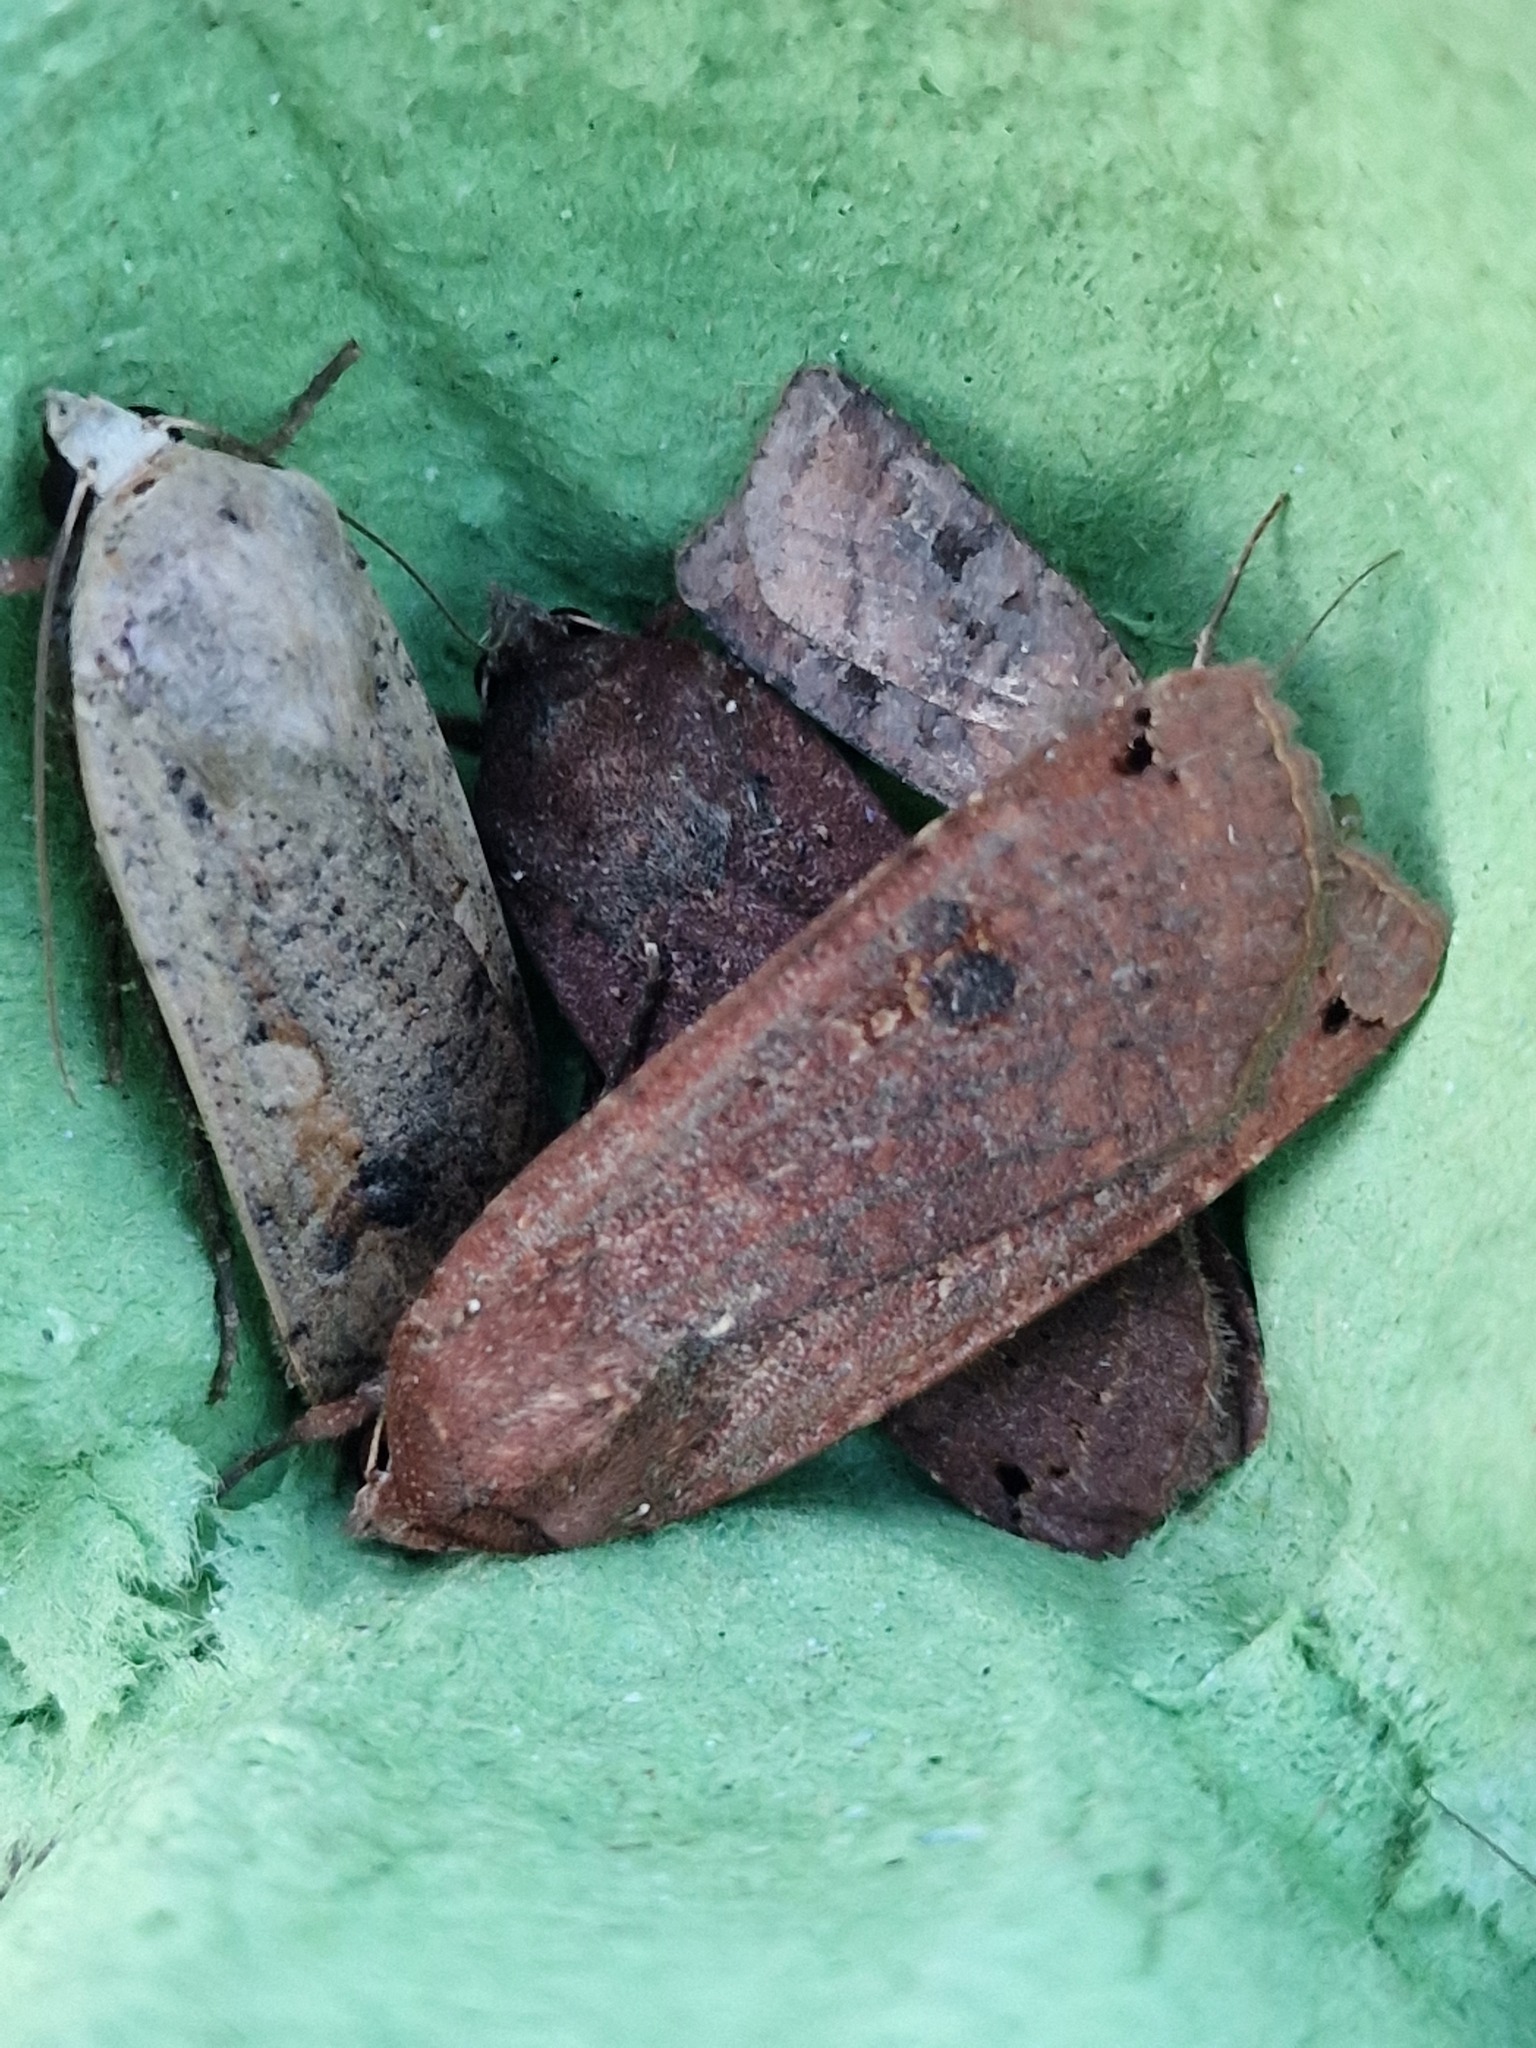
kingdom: Animalia
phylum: Arthropoda
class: Insecta
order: Lepidoptera
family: Noctuidae
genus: Noctua
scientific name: Noctua pronuba
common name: Large yellow underwing
